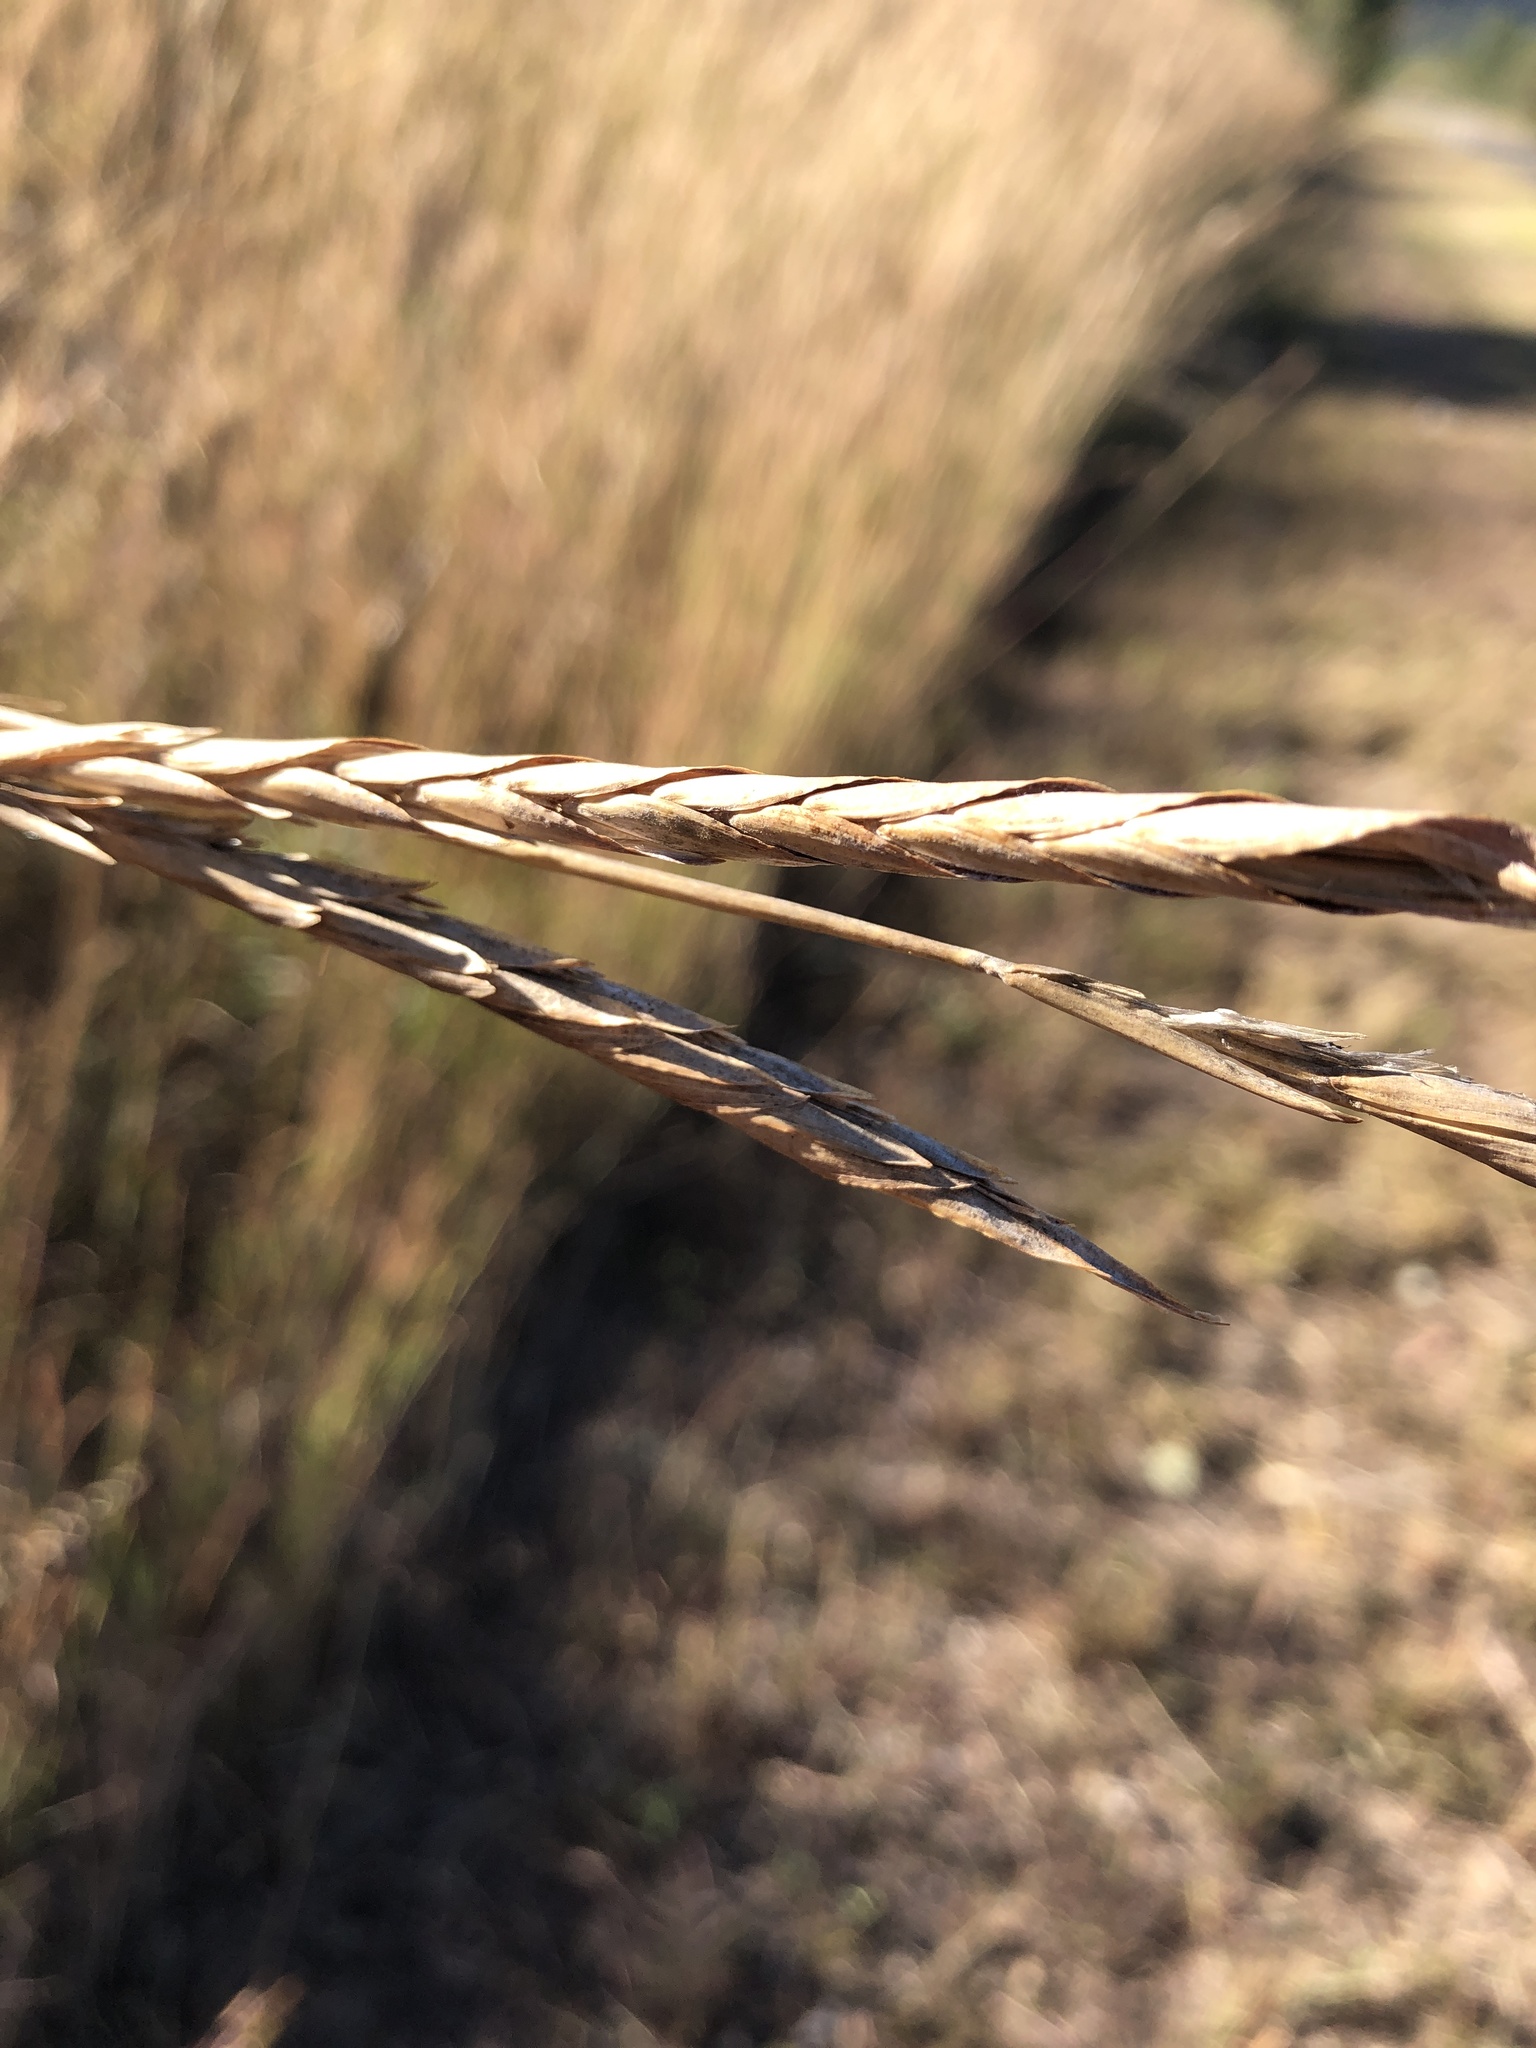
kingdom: Plantae
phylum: Tracheophyta
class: Liliopsida
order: Poales
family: Poaceae
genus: Heteropogon
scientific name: Heteropogon triticeus
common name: Sugar grass
